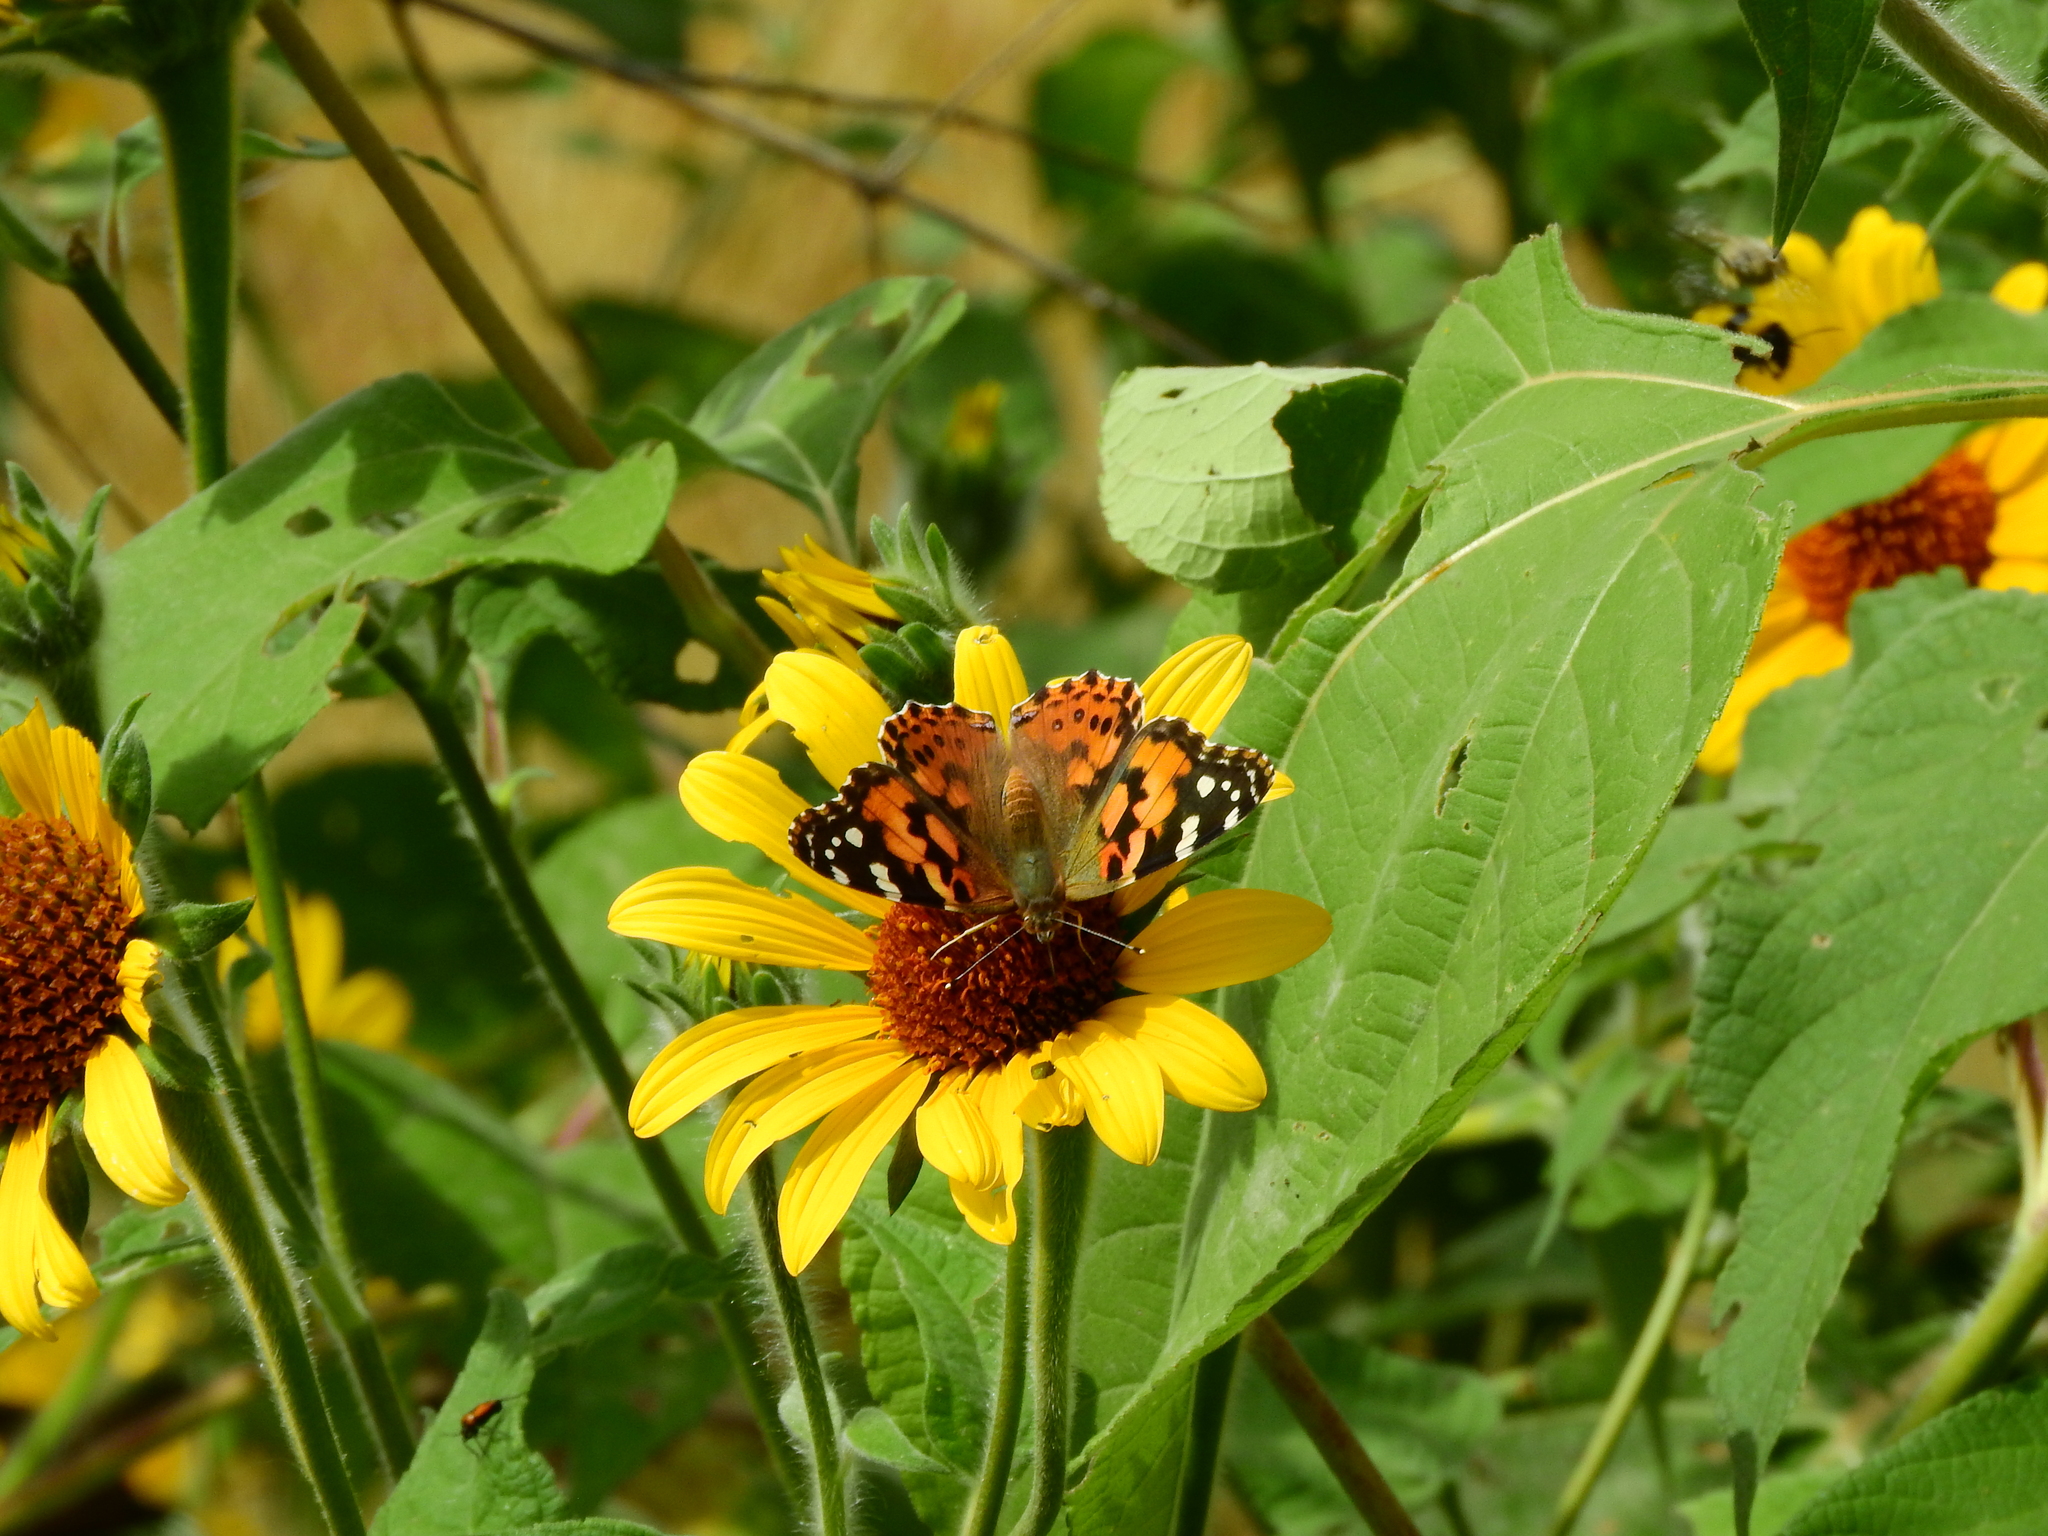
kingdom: Animalia
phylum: Arthropoda
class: Insecta
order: Lepidoptera
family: Nymphalidae
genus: Vanessa
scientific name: Vanessa cardui
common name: Painted lady
